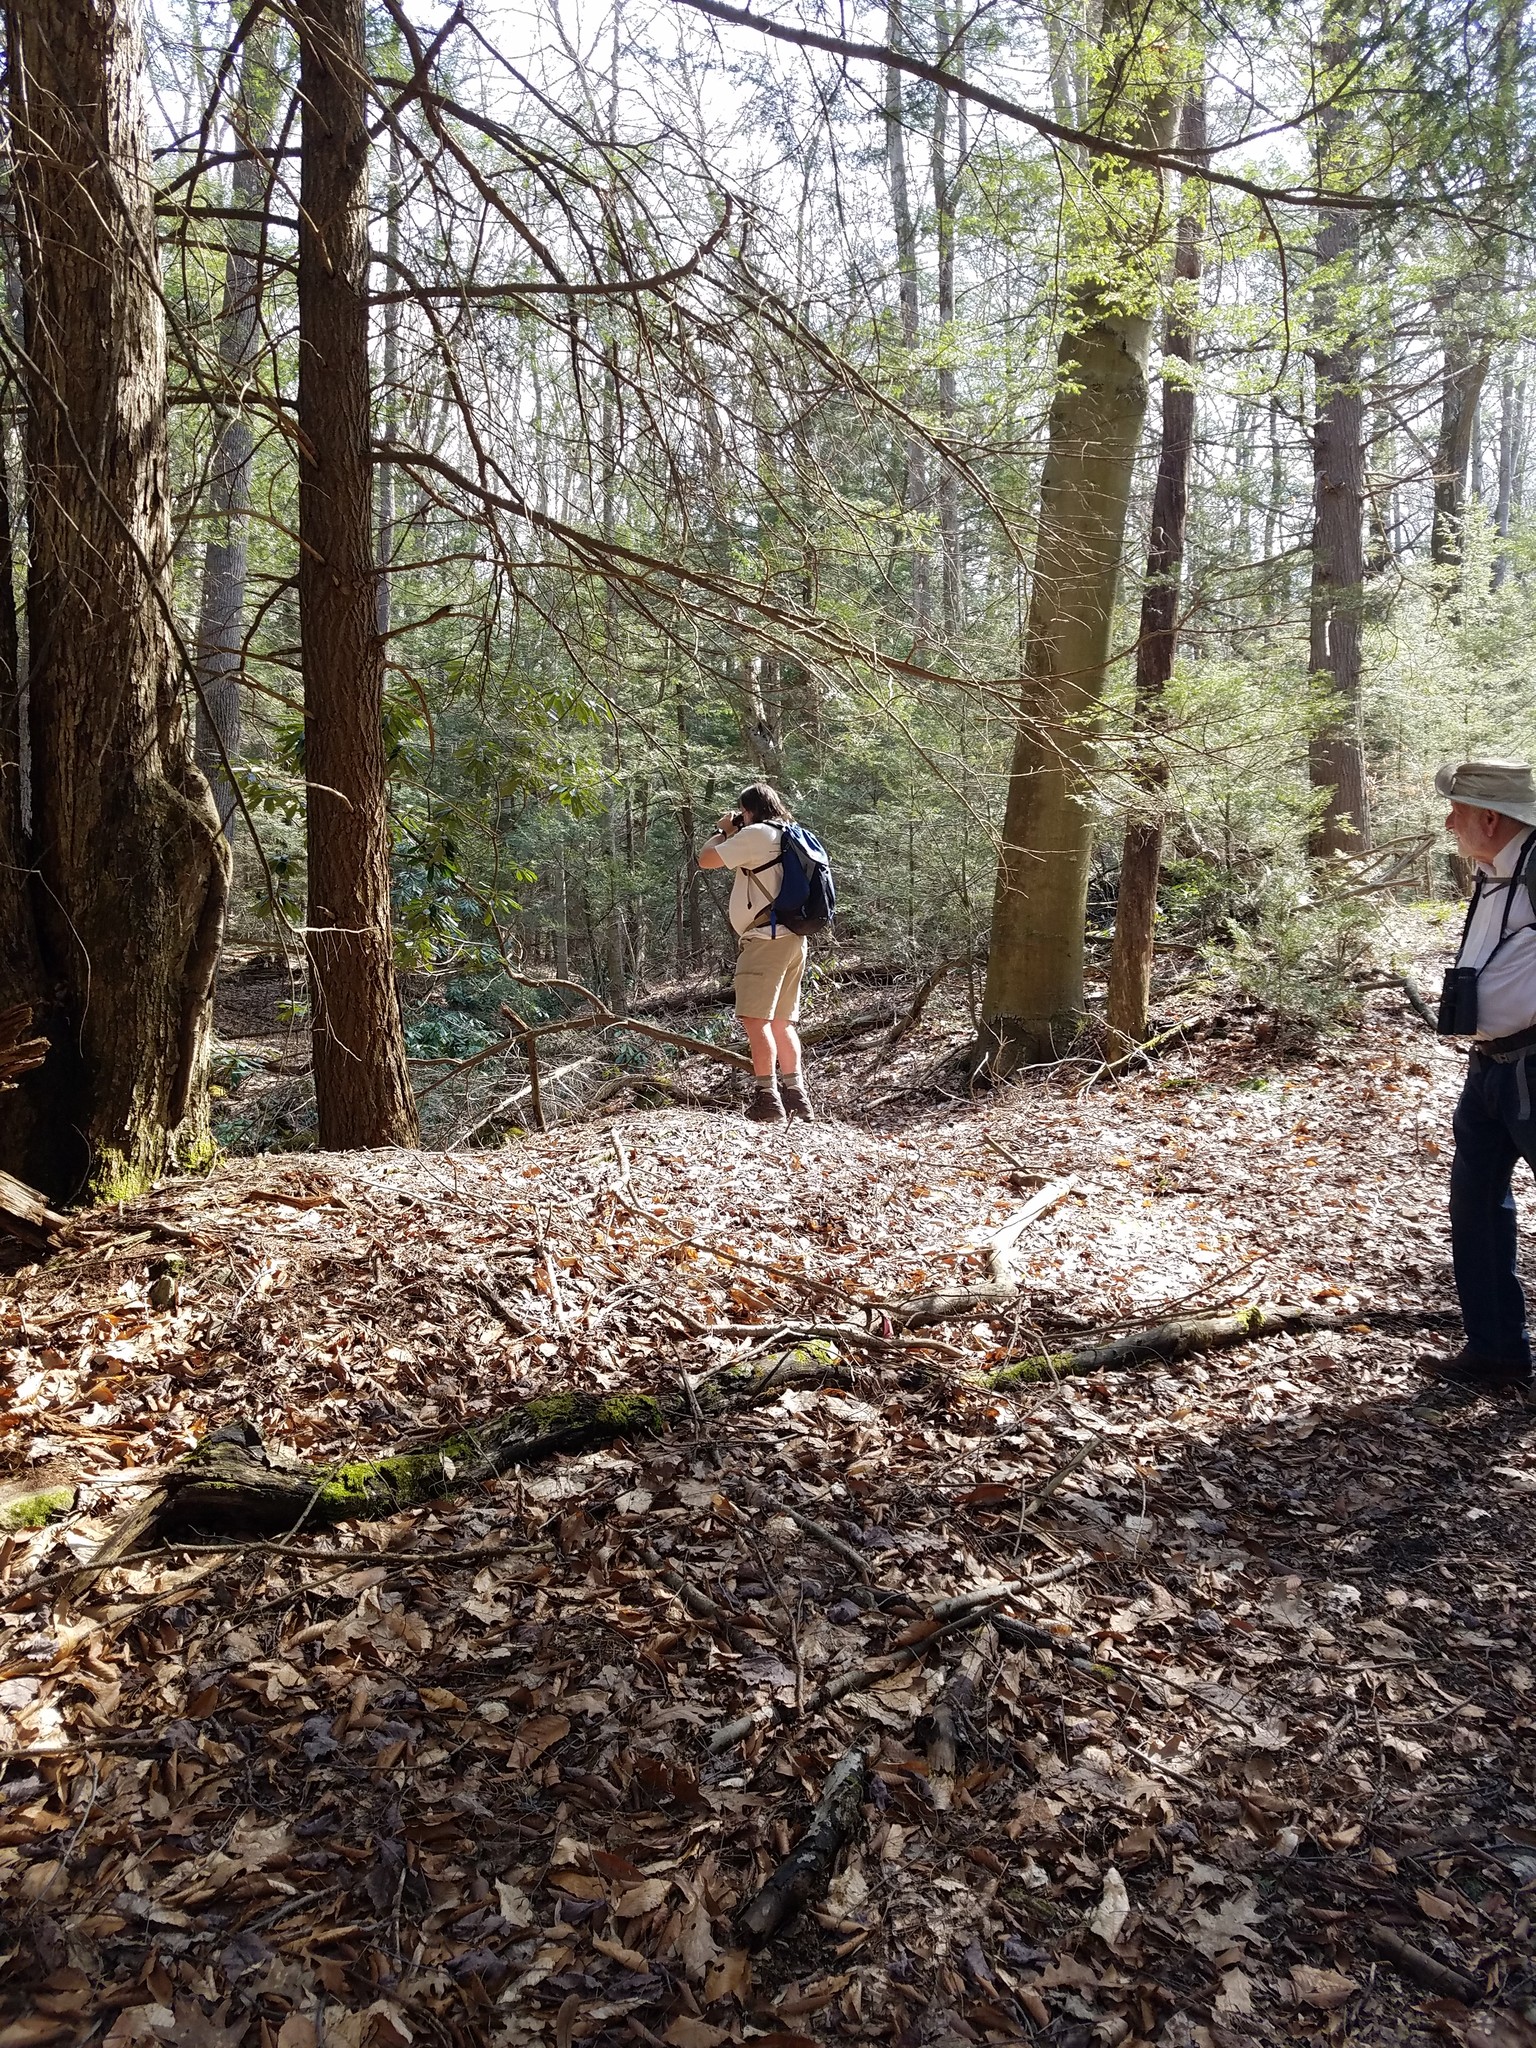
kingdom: Plantae
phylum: Tracheophyta
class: Pinopsida
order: Pinales
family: Pinaceae
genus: Tsuga
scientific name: Tsuga canadensis
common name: Eastern hemlock
